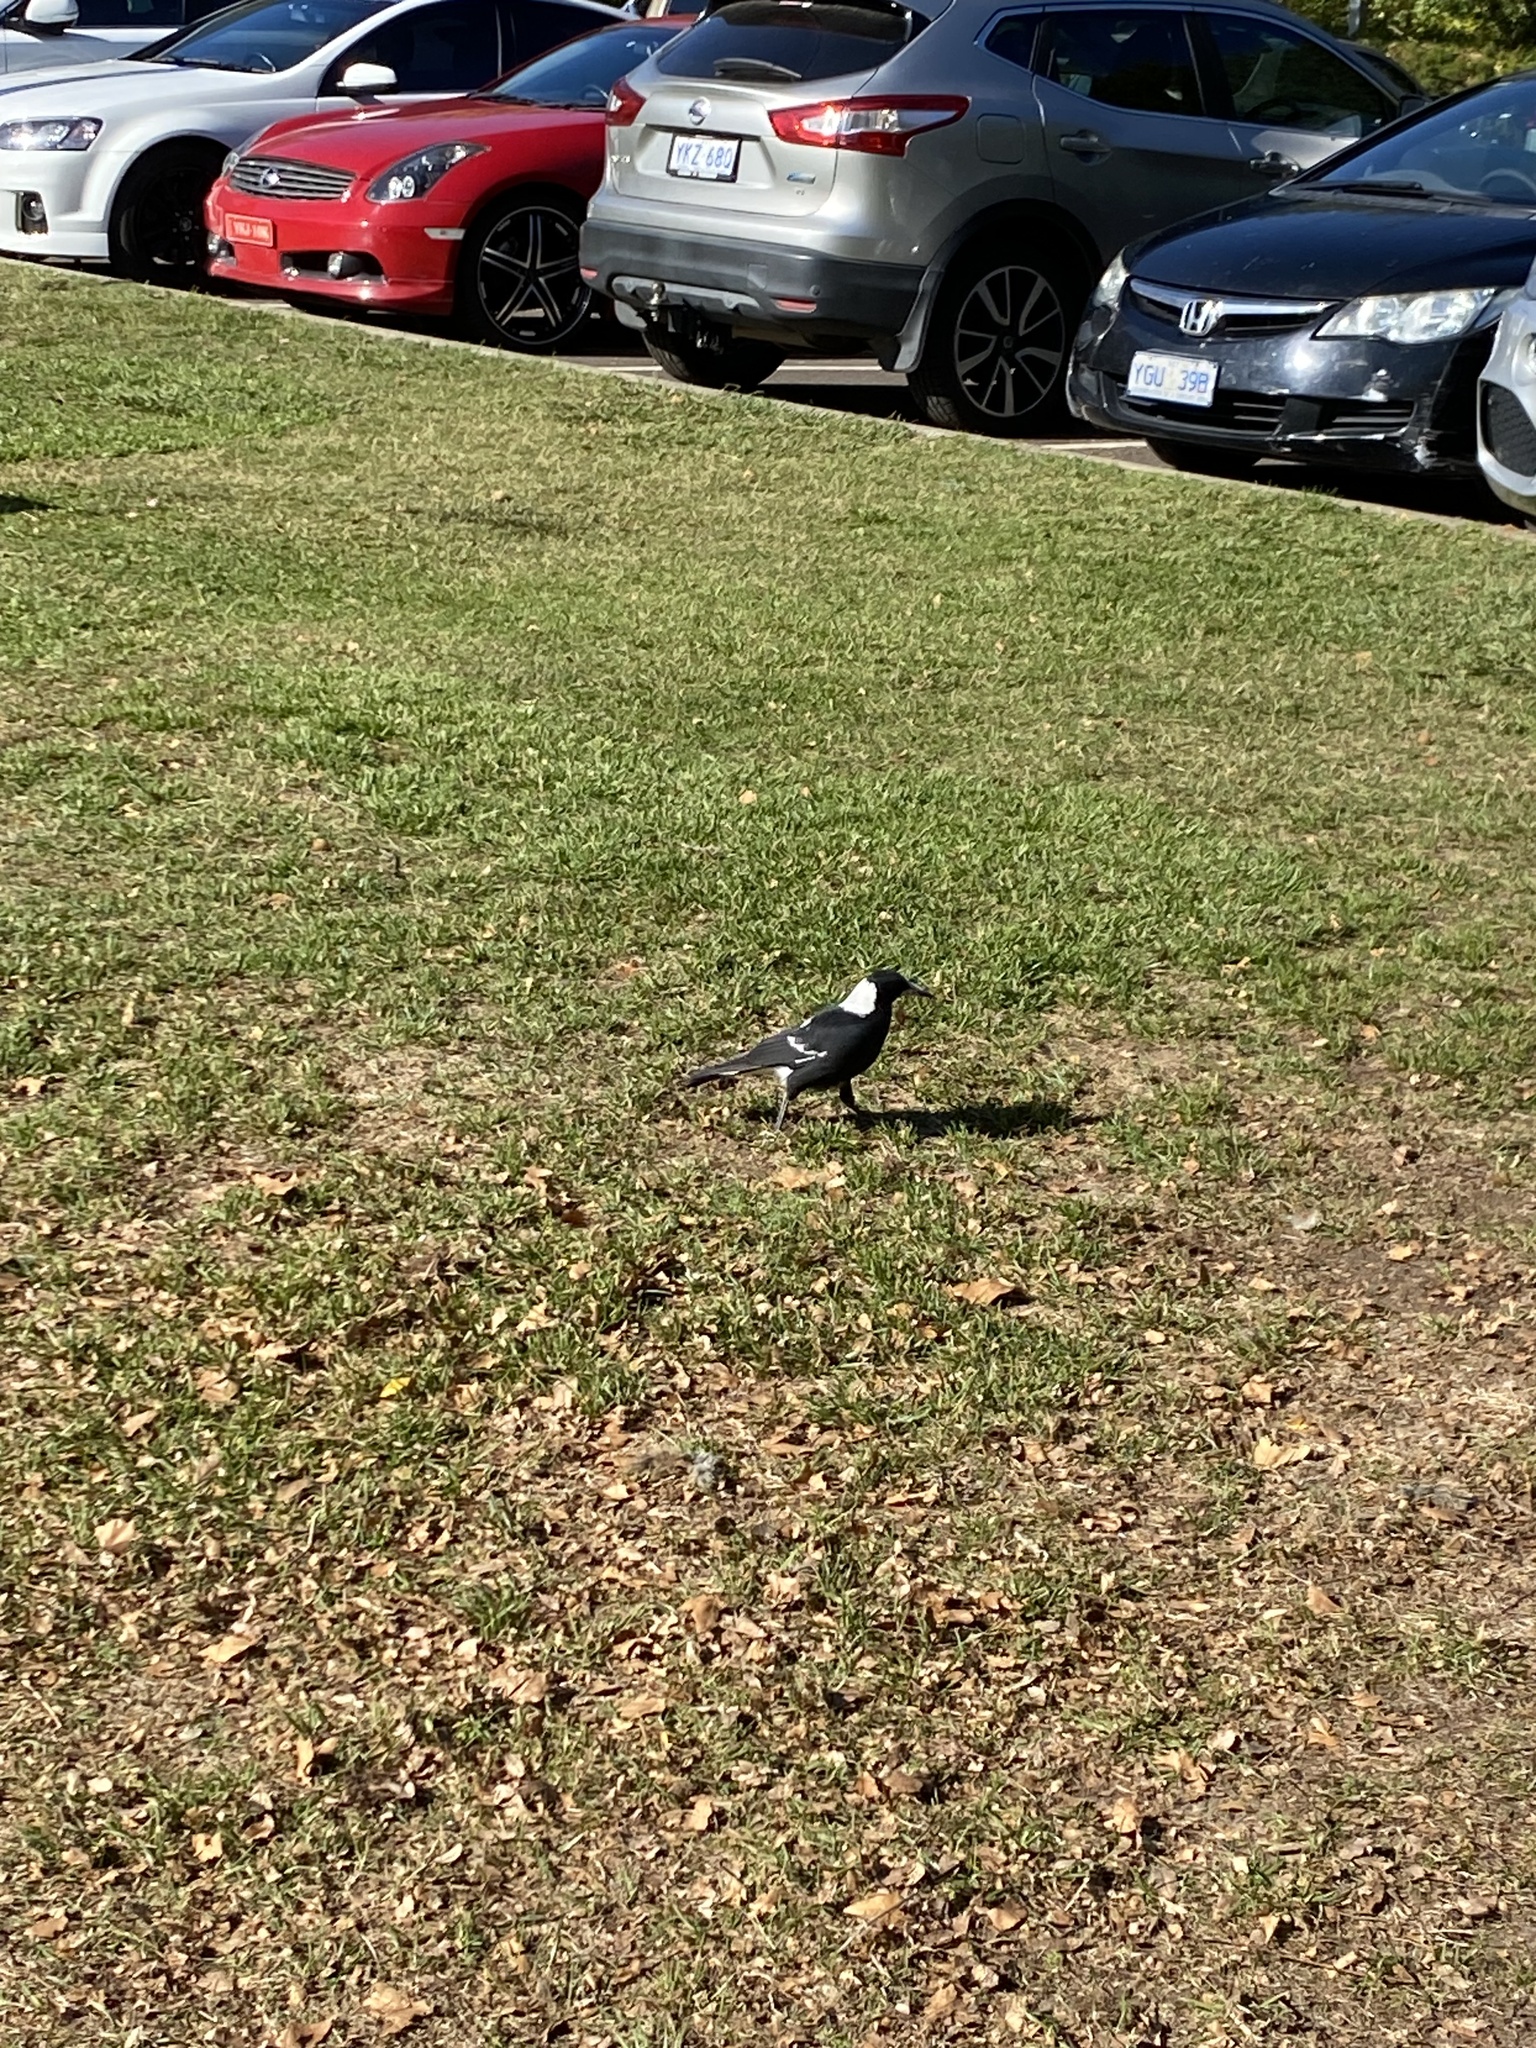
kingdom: Animalia
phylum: Chordata
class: Aves
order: Passeriformes
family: Cracticidae
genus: Gymnorhina
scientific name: Gymnorhina tibicen
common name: Australian magpie
